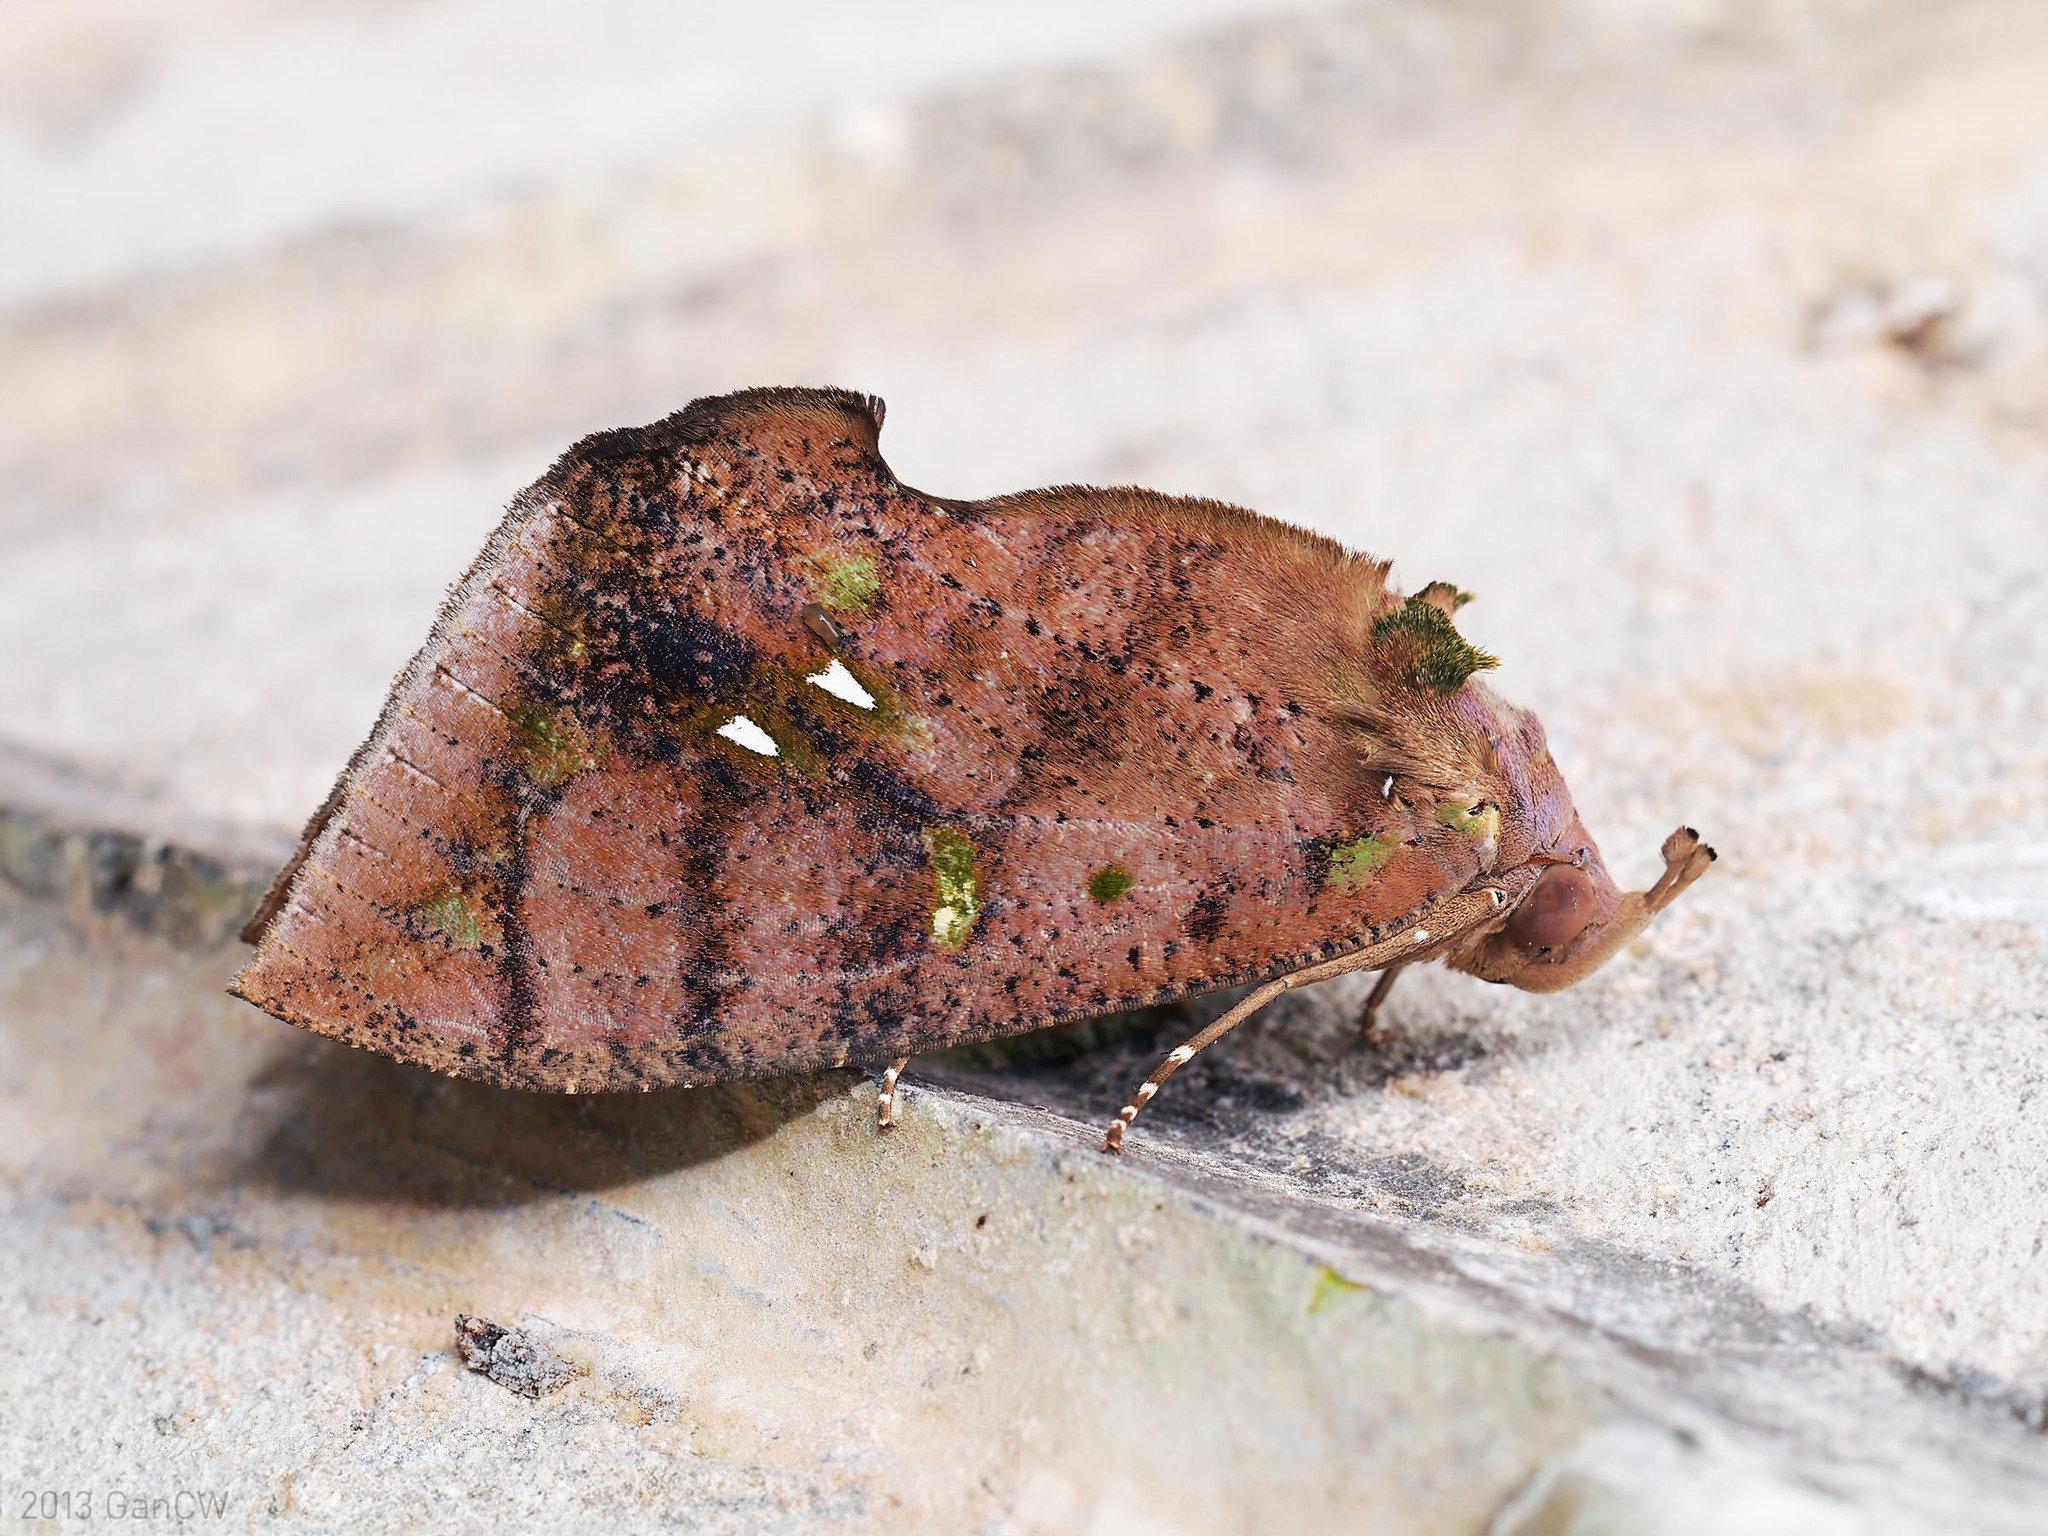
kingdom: Animalia
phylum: Arthropoda
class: Insecta
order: Lepidoptera
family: Erebidae
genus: Eudocima
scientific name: Eudocima discrepans
